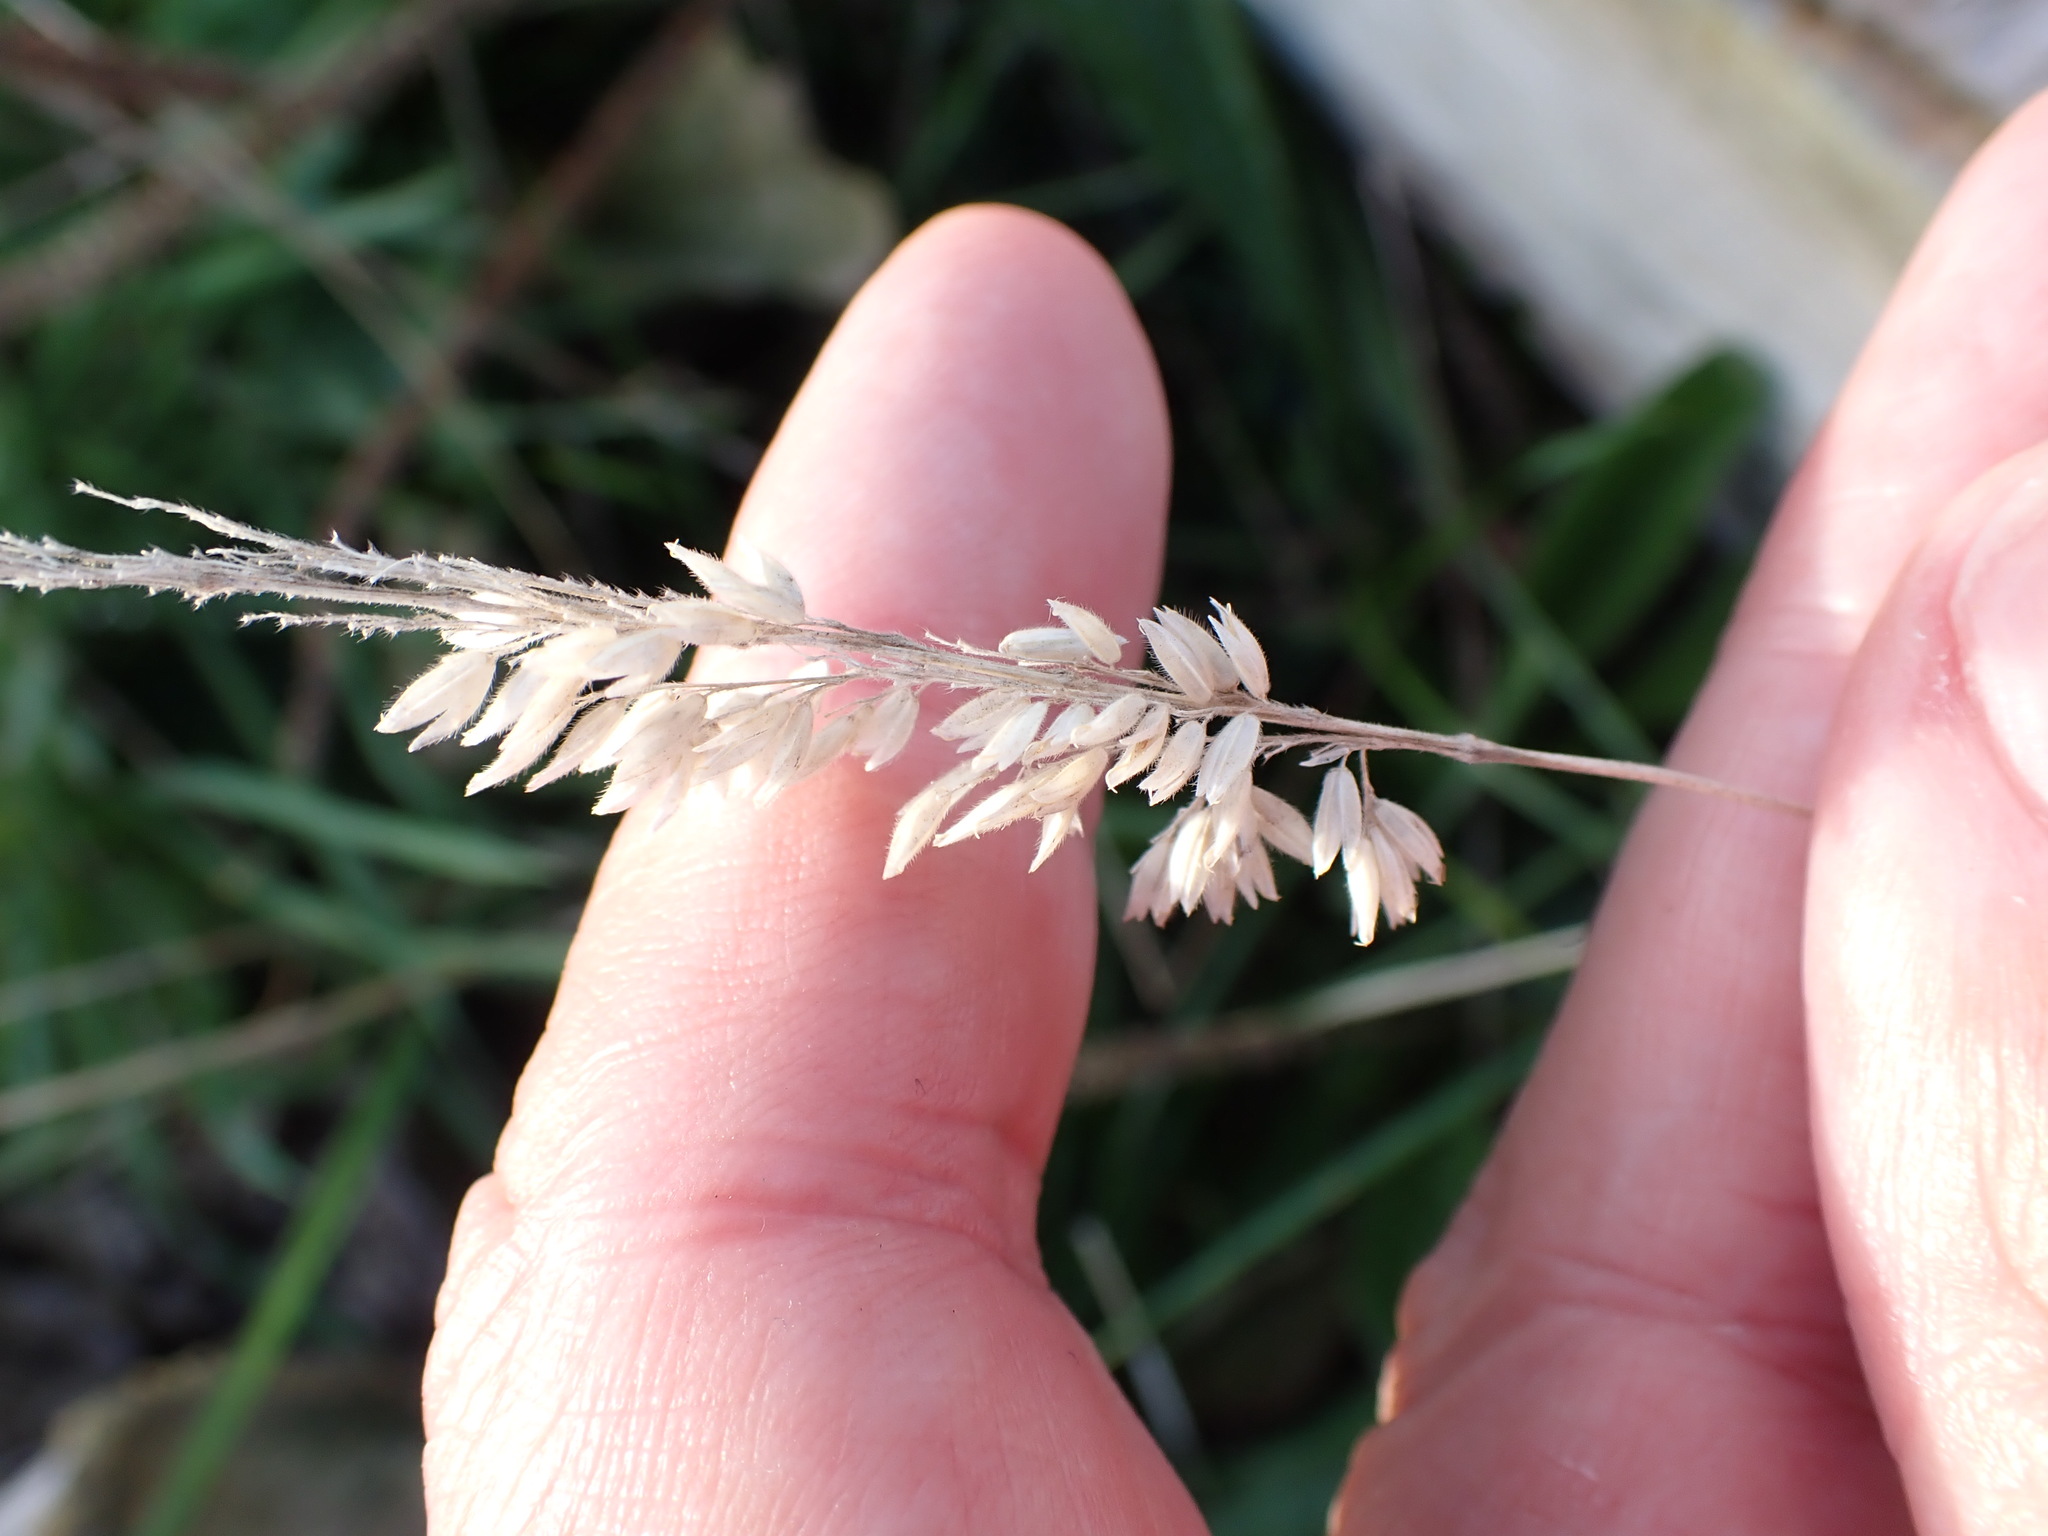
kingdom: Plantae
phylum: Tracheophyta
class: Liliopsida
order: Poales
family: Poaceae
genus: Holcus
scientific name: Holcus lanatus
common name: Yorkshire-fog
